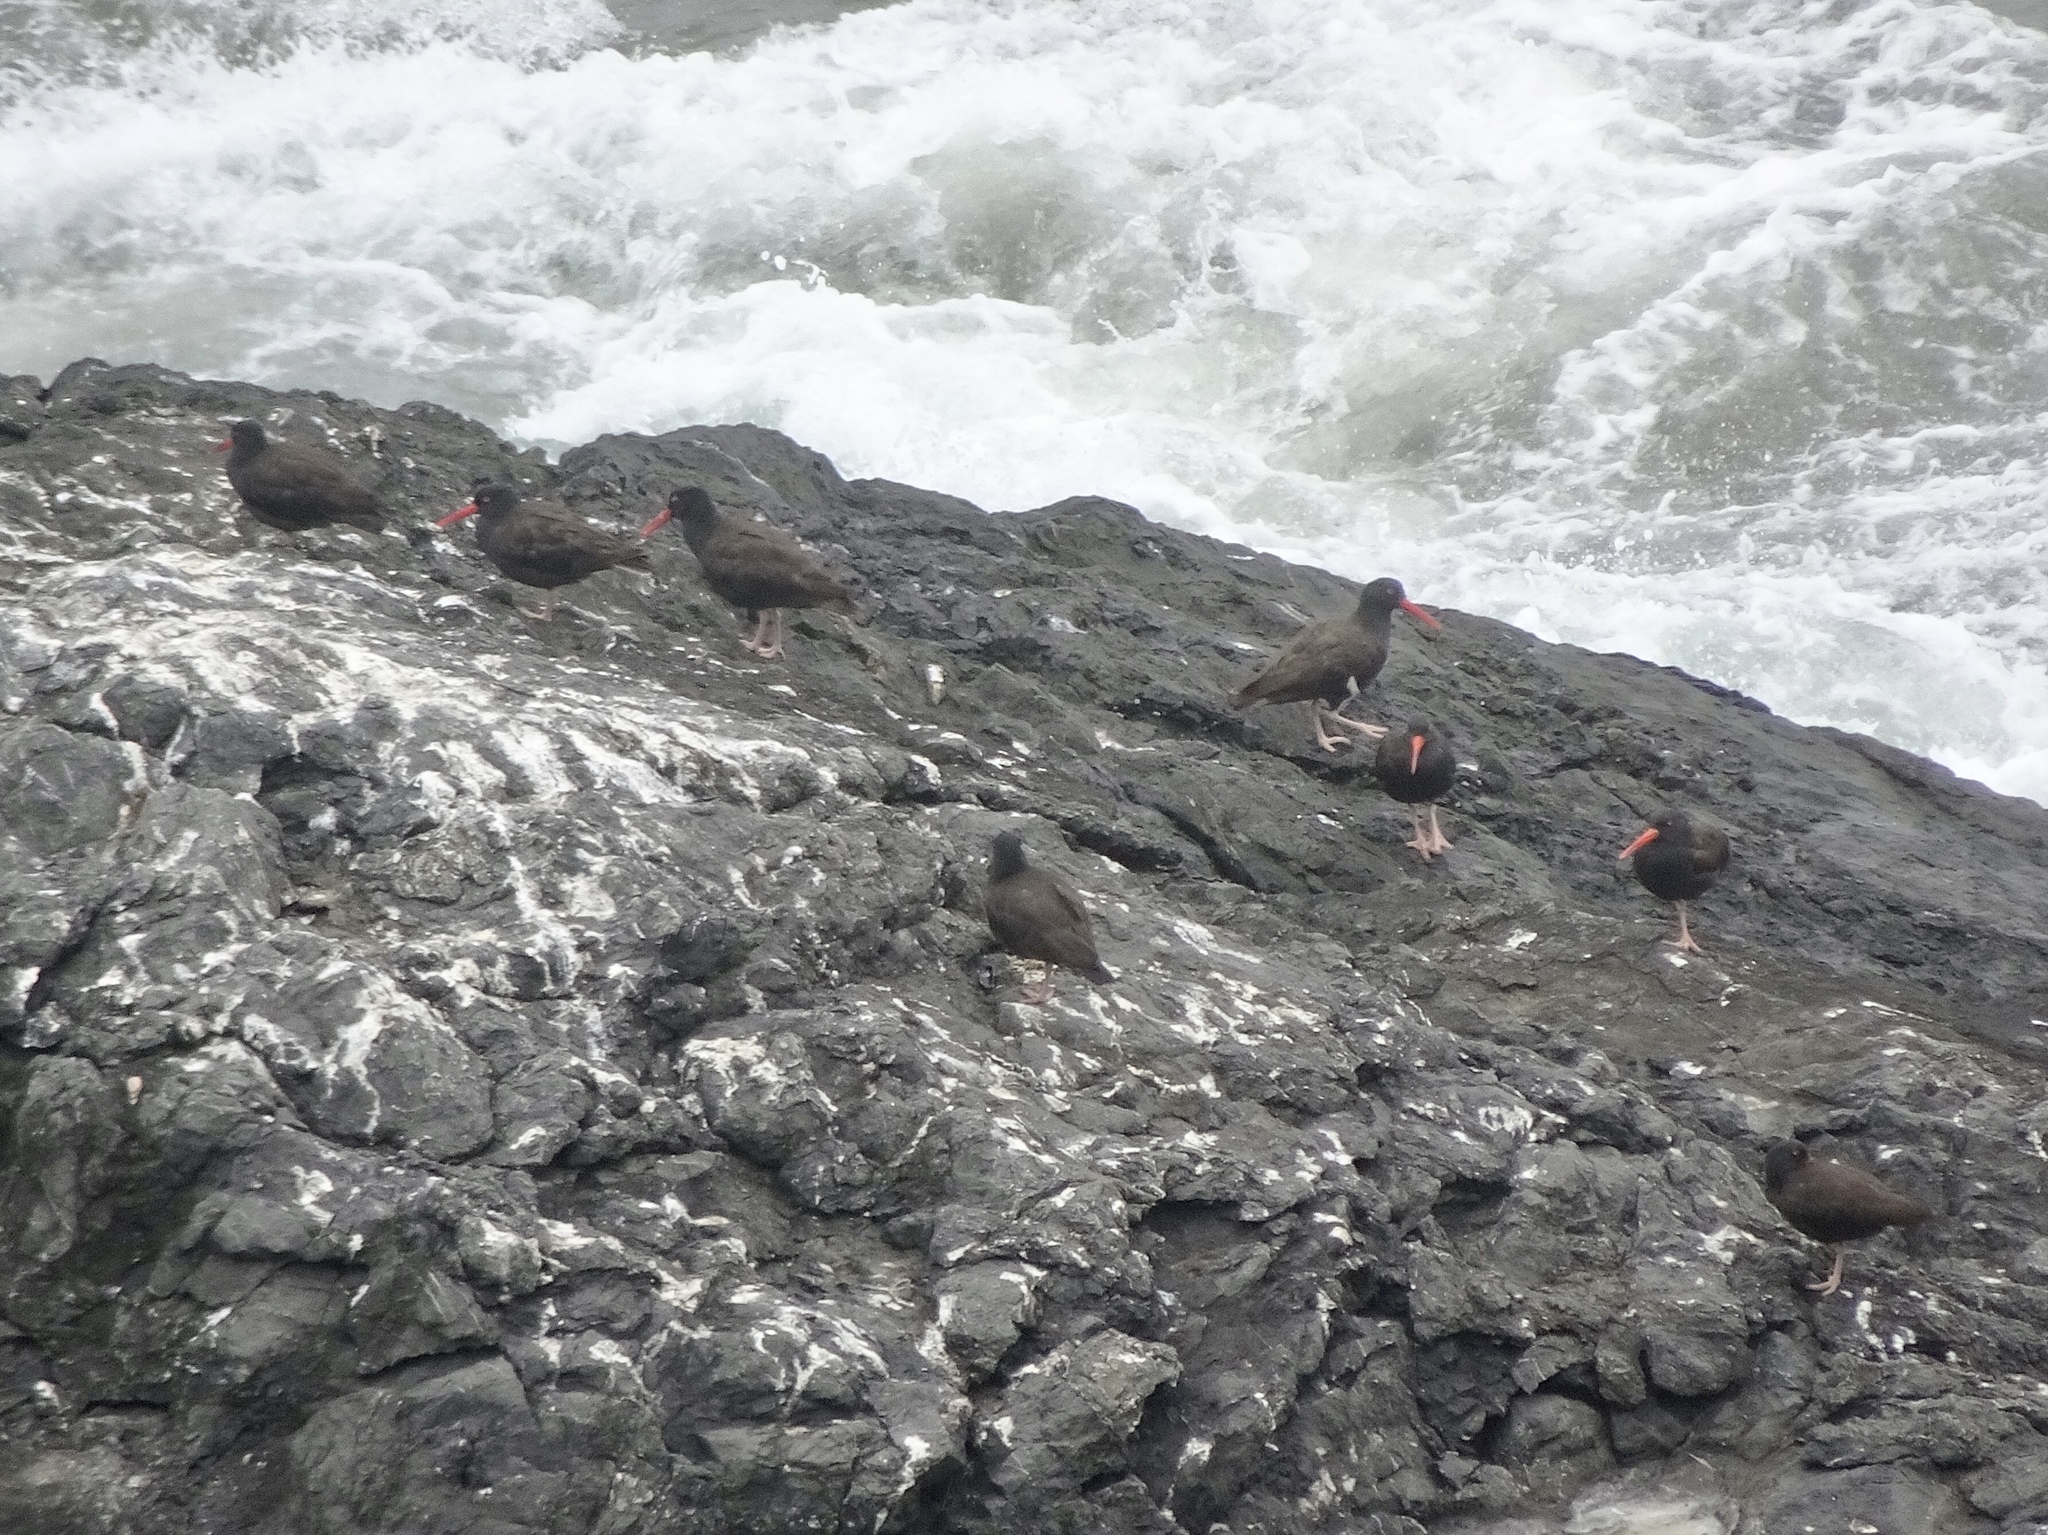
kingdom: Animalia
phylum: Chordata
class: Aves
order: Charadriiformes
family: Haematopodidae
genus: Haematopus
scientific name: Haematopus bachmani
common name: Black oystercatcher
